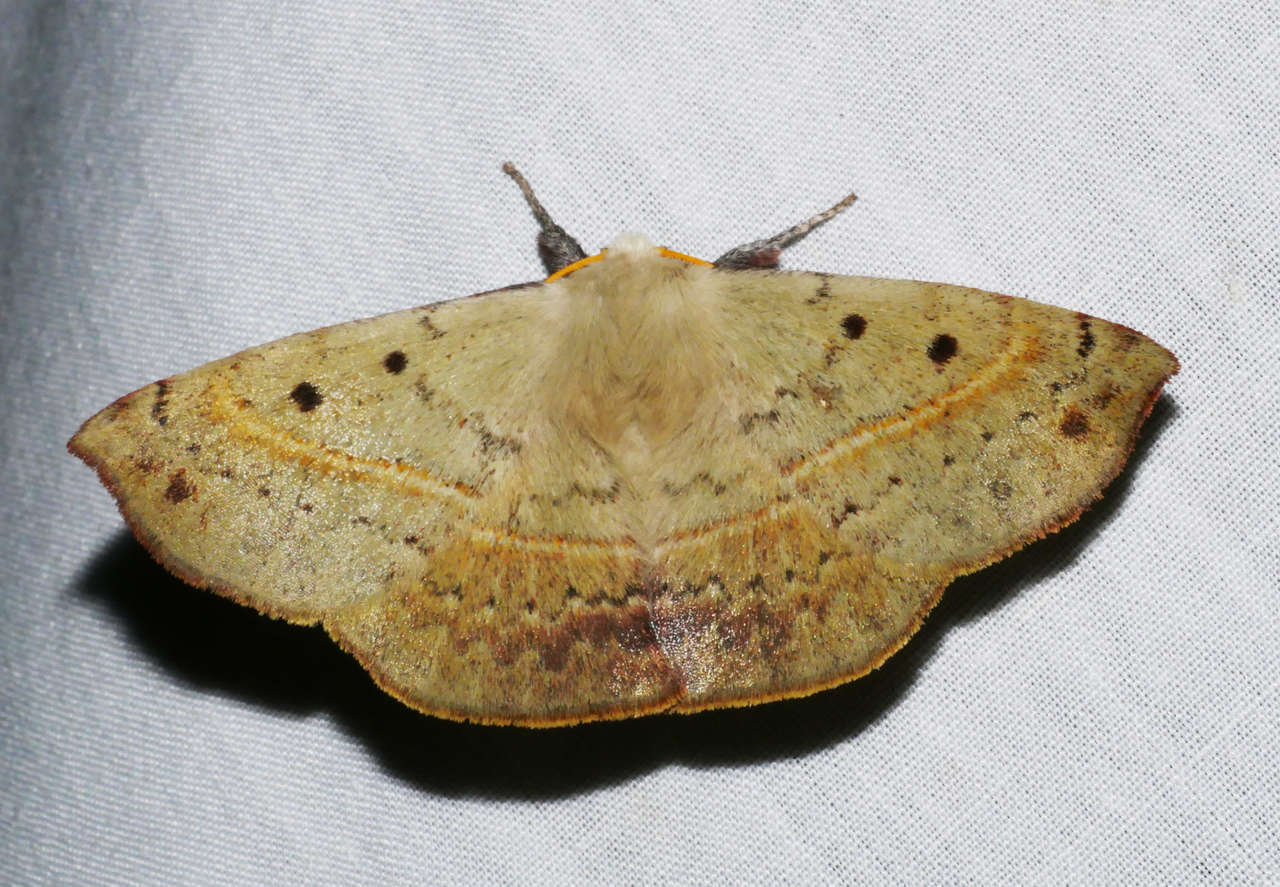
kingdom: Animalia
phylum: Arthropoda
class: Insecta
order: Lepidoptera
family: Anthelidae
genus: Anthela
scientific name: Anthela acuta
